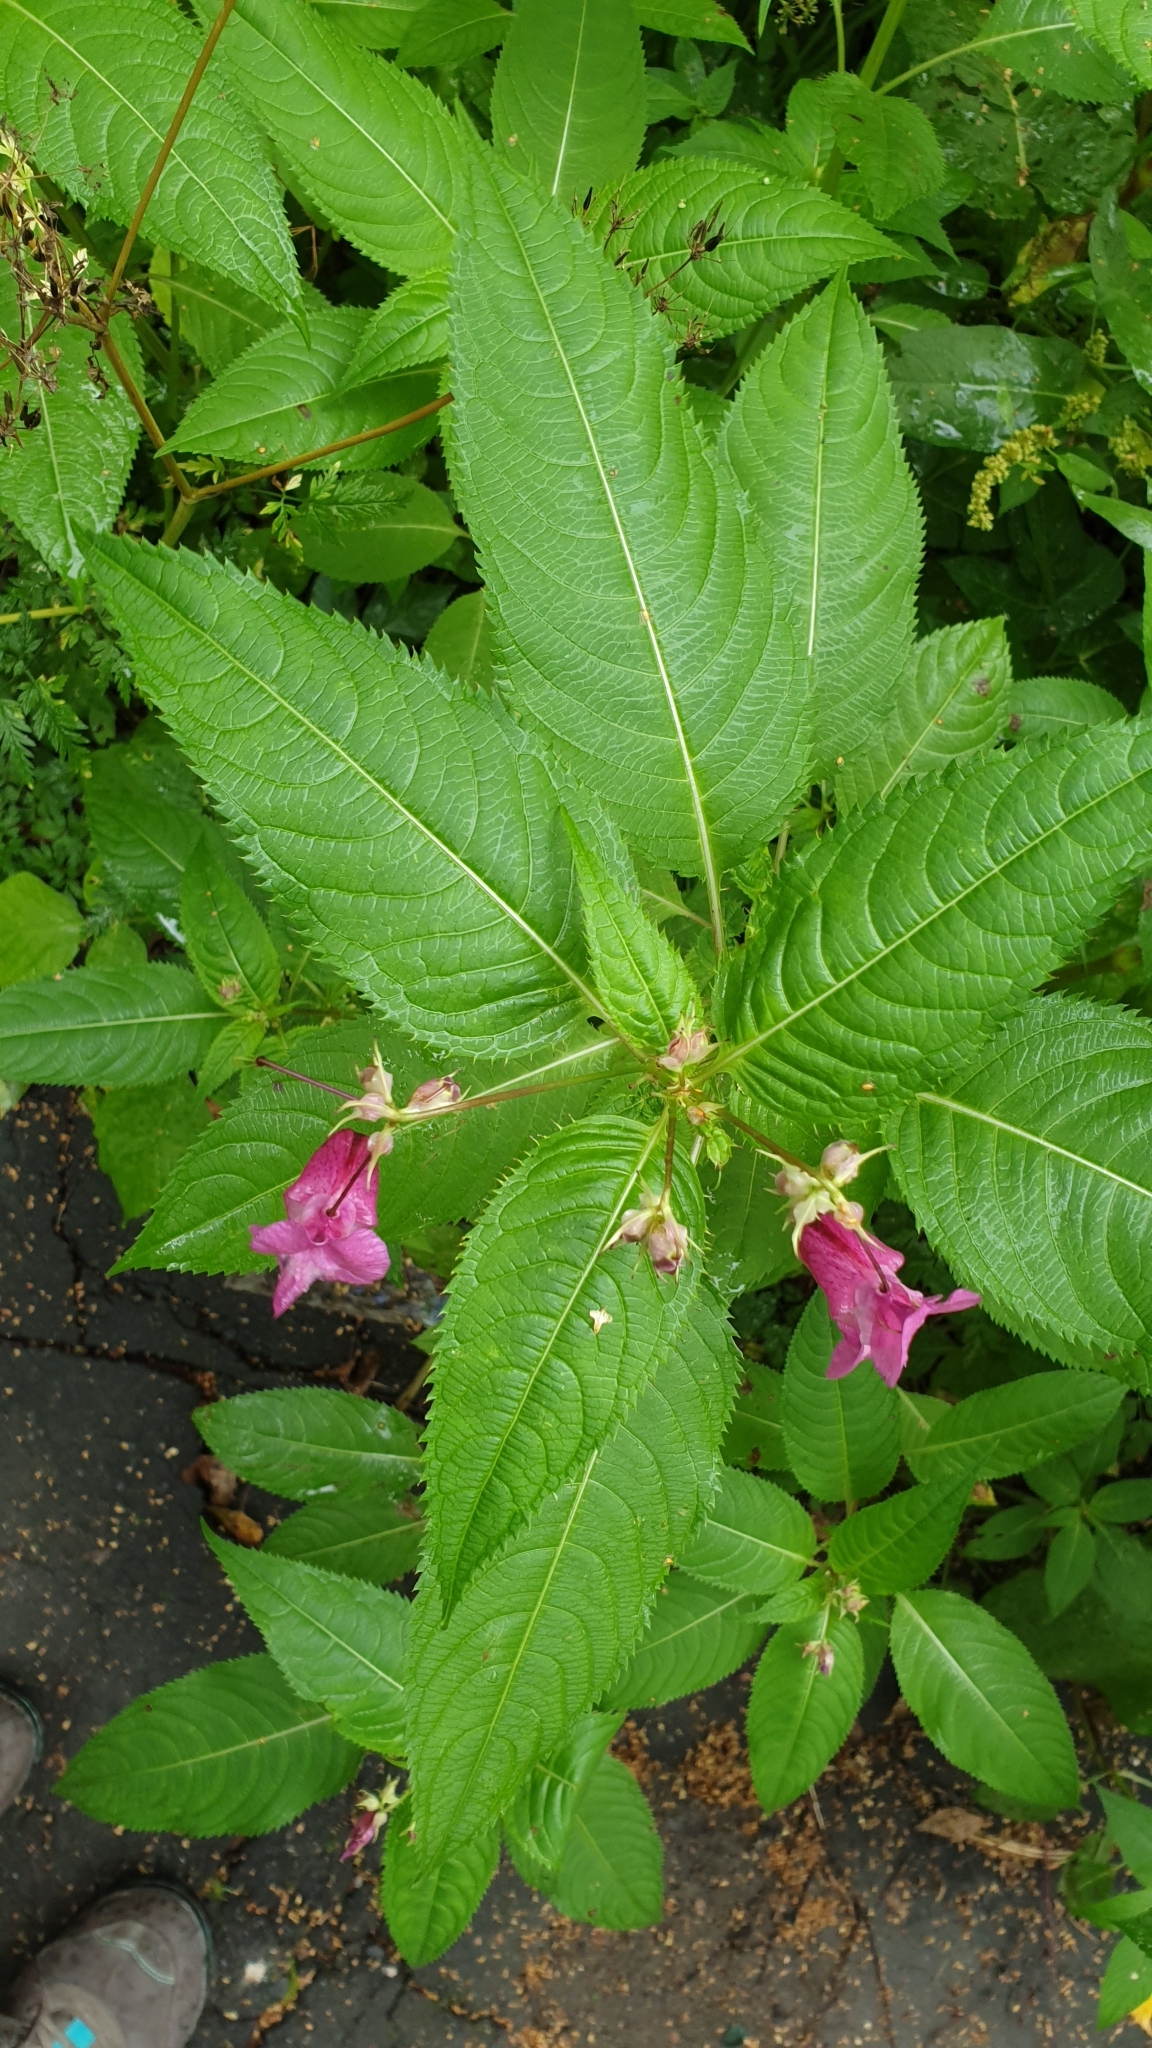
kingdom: Plantae
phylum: Tracheophyta
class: Magnoliopsida
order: Ericales
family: Balsaminaceae
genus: Impatiens
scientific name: Impatiens glandulifera
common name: Himalayan balsam
